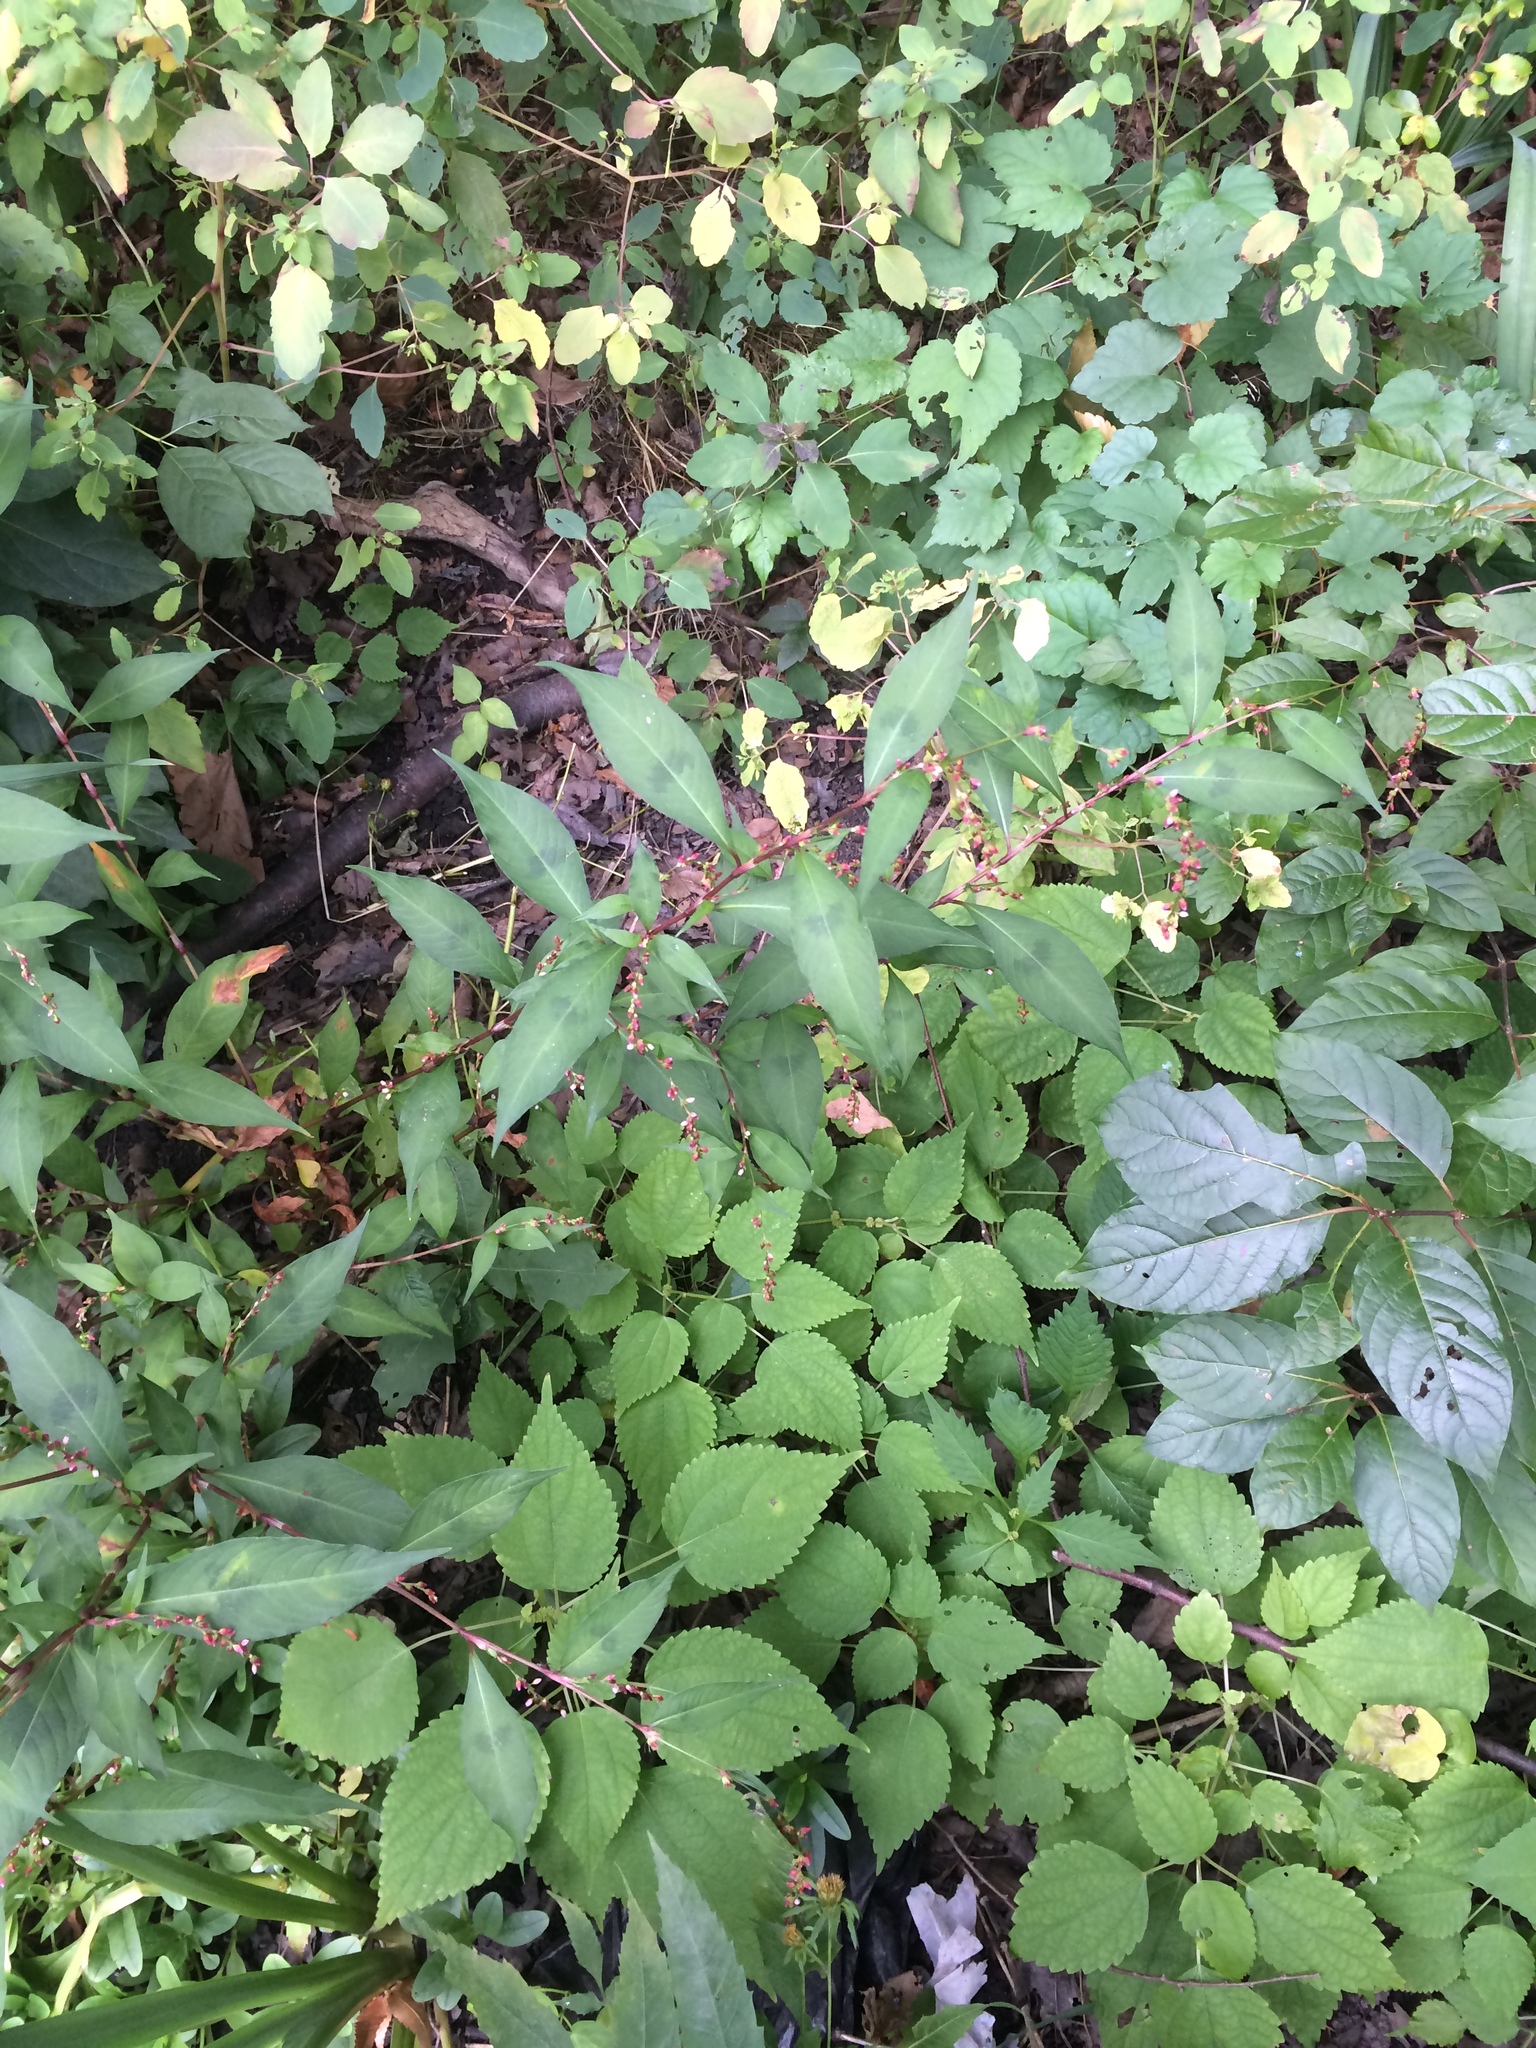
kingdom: Plantae
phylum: Tracheophyta
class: Magnoliopsida
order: Caryophyllales
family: Polygonaceae
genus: Persicaria
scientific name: Persicaria hydropiper
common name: Water-pepper
